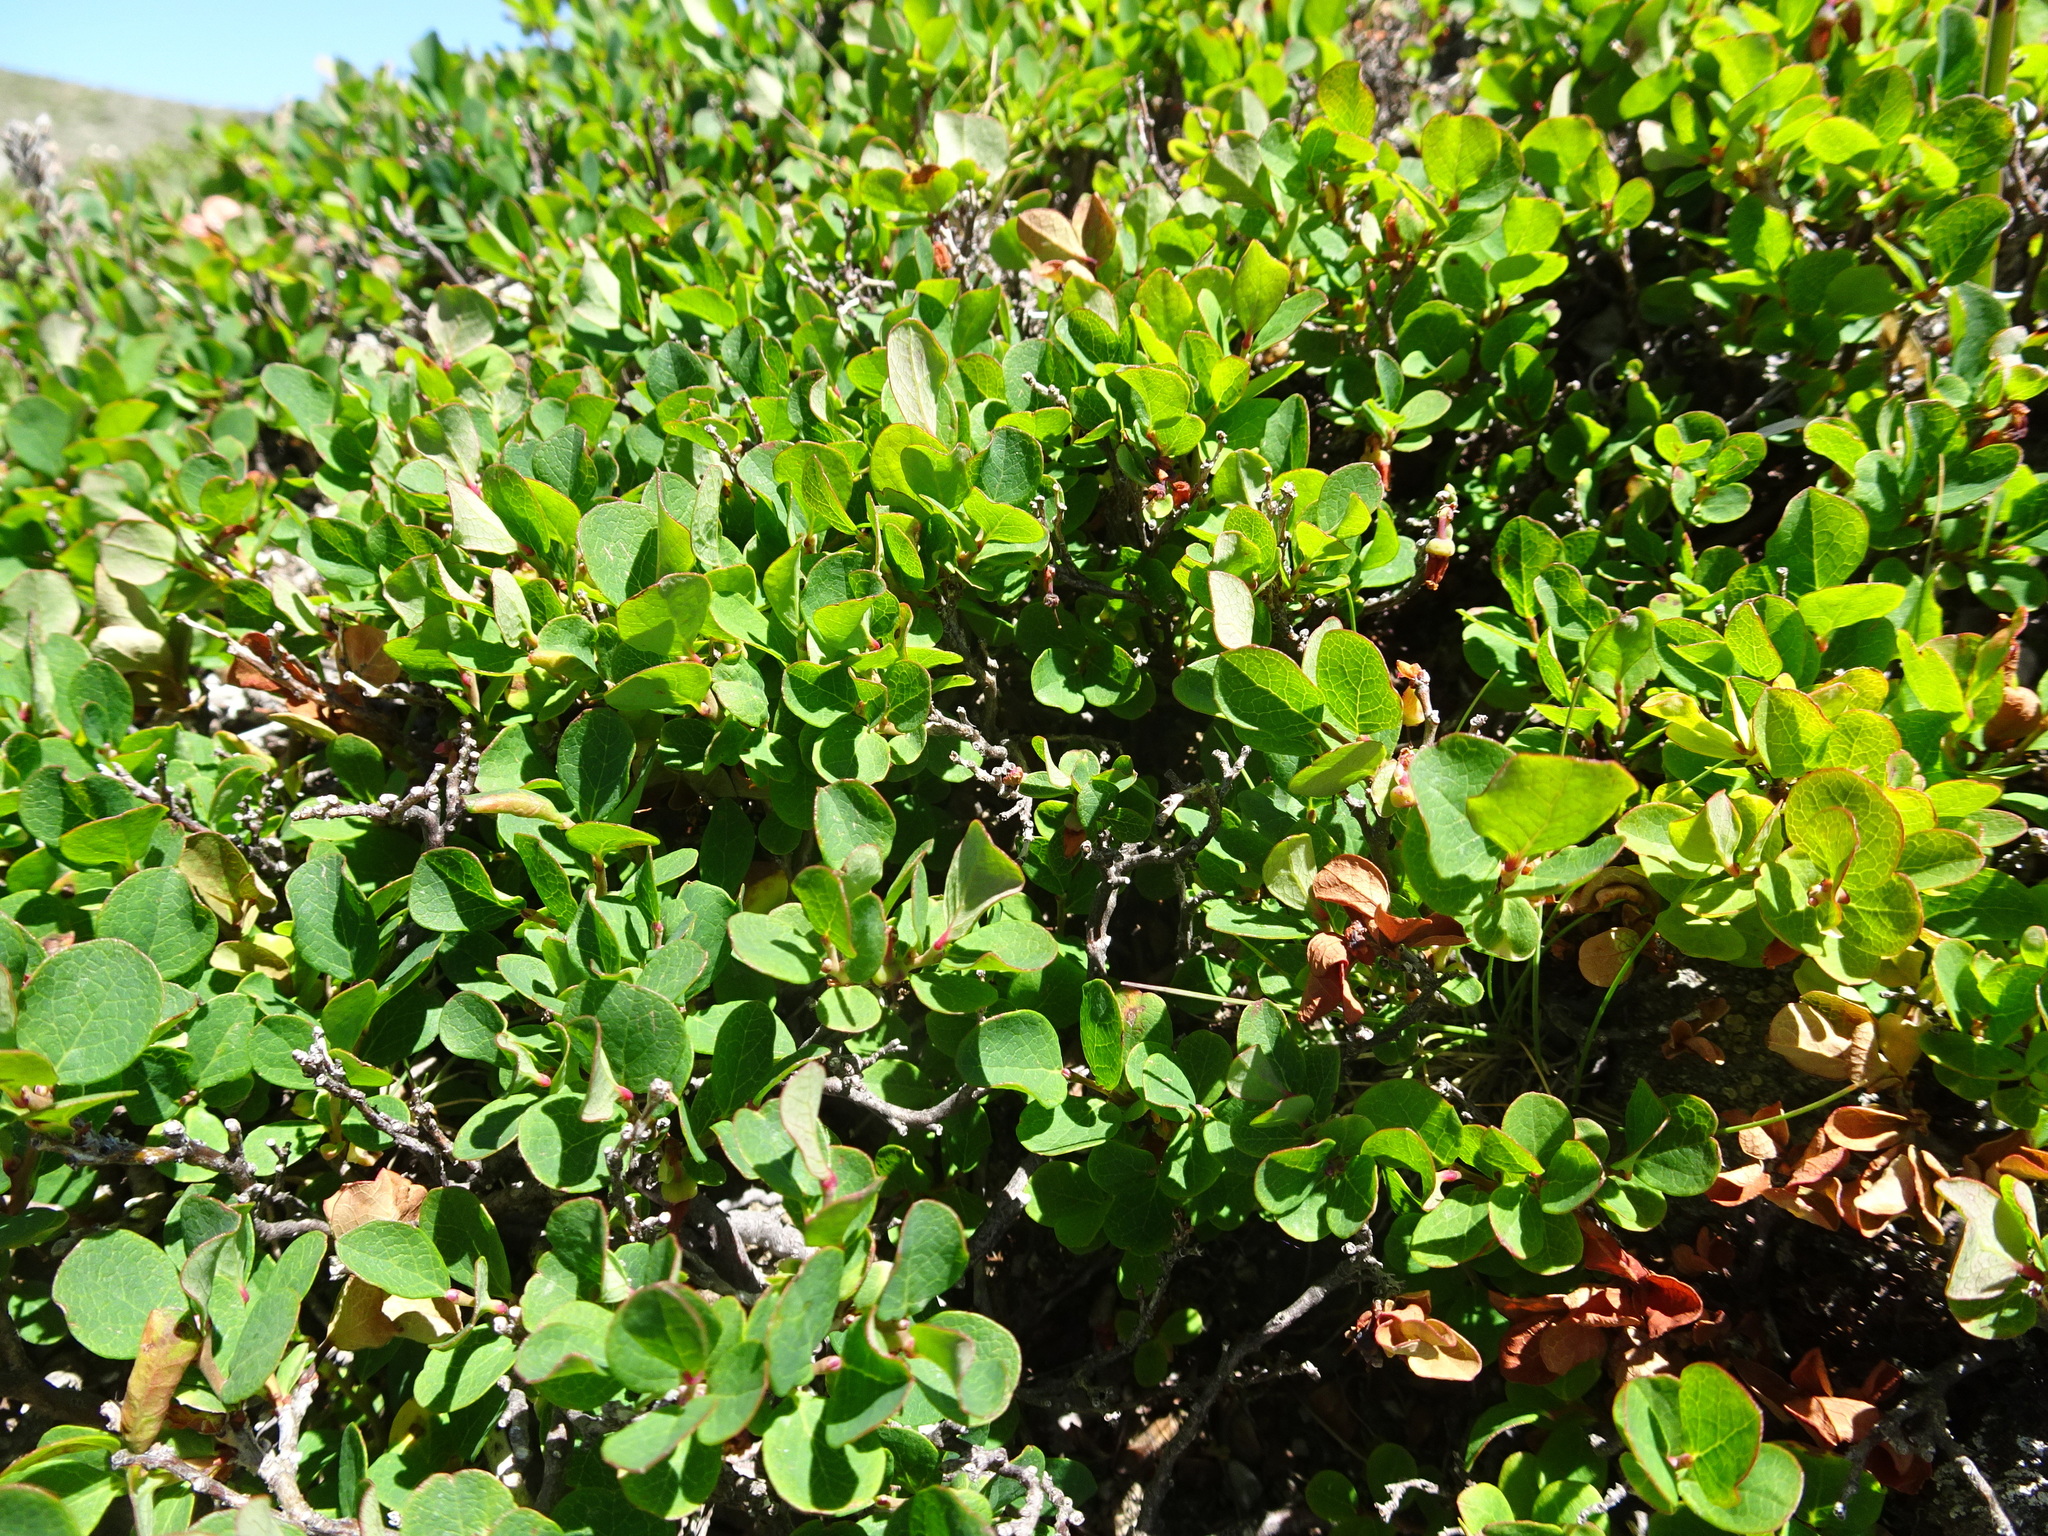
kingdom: Plantae
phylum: Tracheophyta
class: Magnoliopsida
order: Ericales
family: Ericaceae
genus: Vaccinium
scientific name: Vaccinium uliginosum
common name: Bog bilberry
